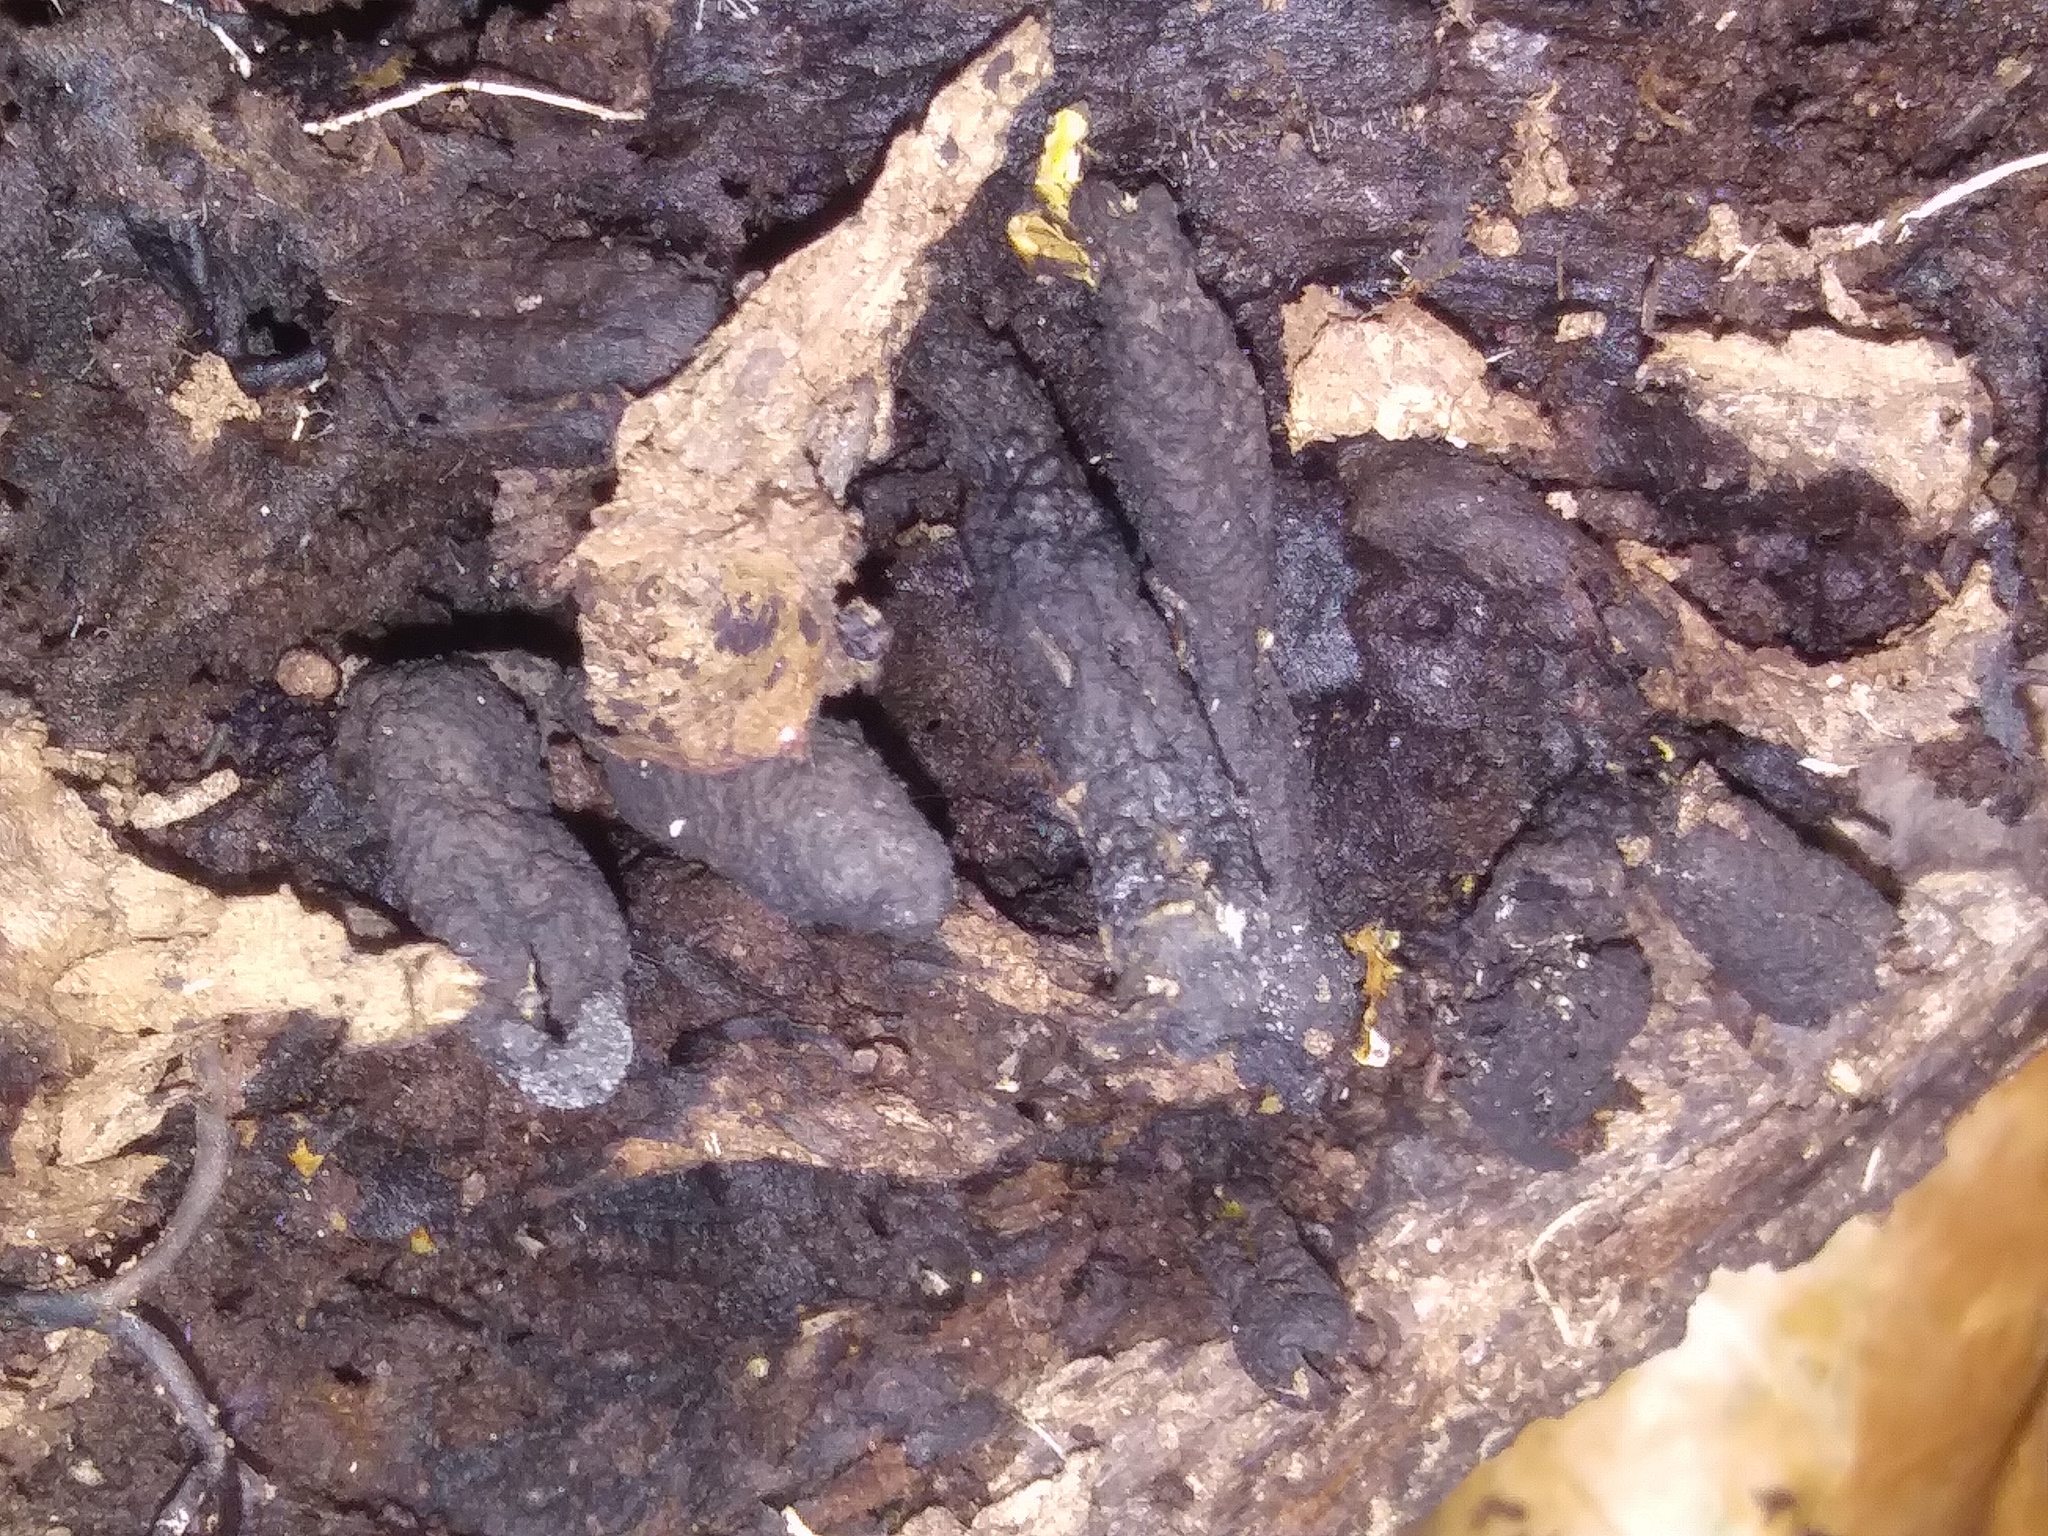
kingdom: Fungi
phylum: Ascomycota
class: Sordariomycetes
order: Xylariales
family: Xylariaceae
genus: Xylaria
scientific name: Xylaria polymorpha
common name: Dead man's fingers
